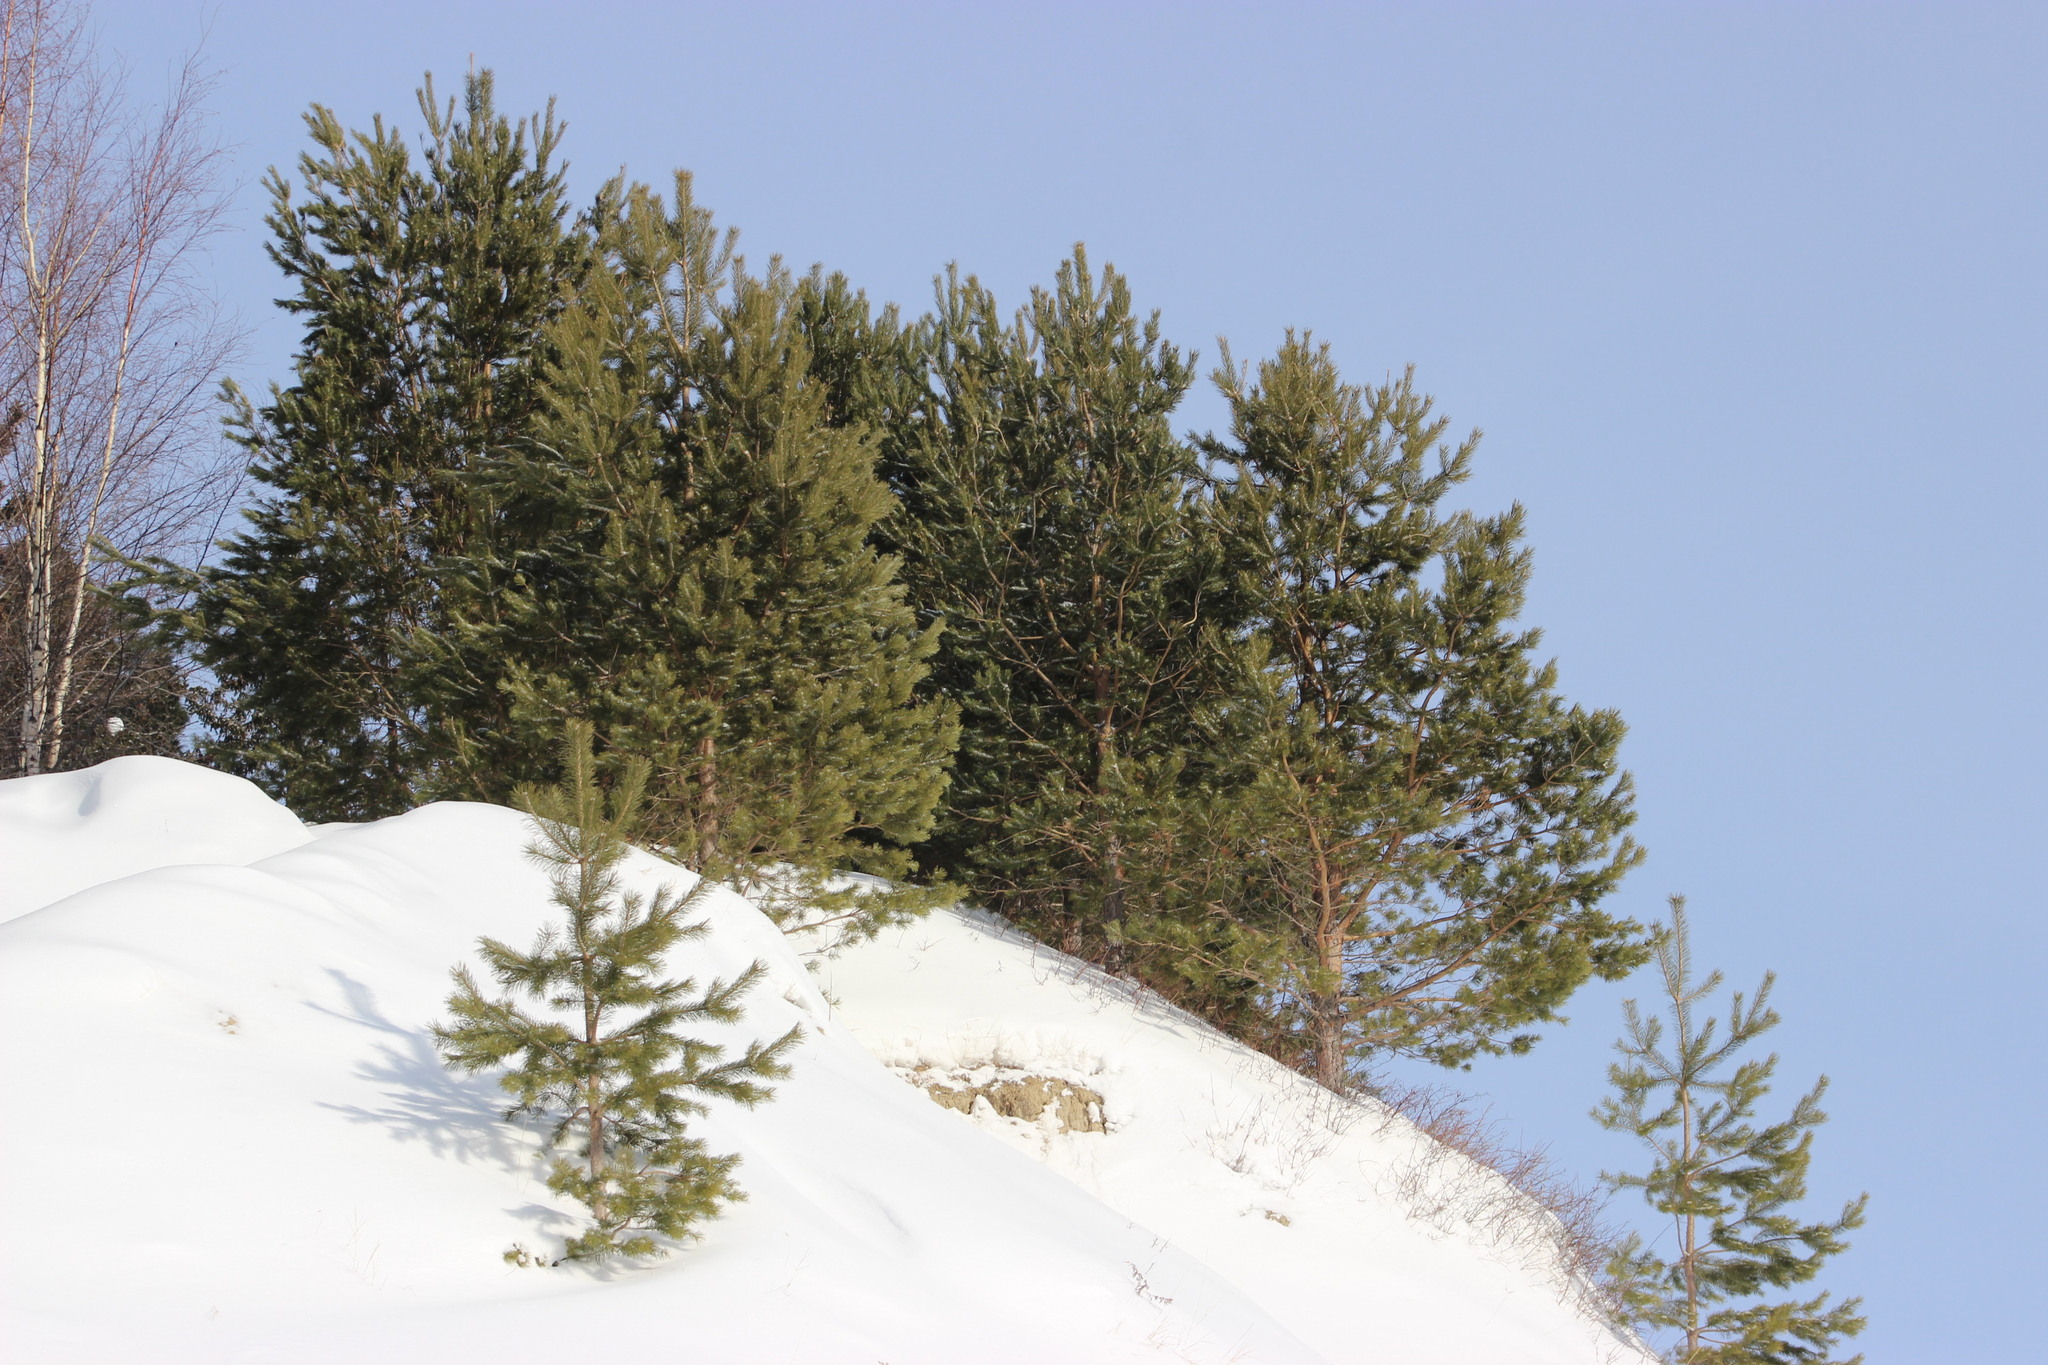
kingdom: Plantae
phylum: Tracheophyta
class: Pinopsida
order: Pinales
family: Pinaceae
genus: Pinus
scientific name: Pinus sylvestris
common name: Scots pine
